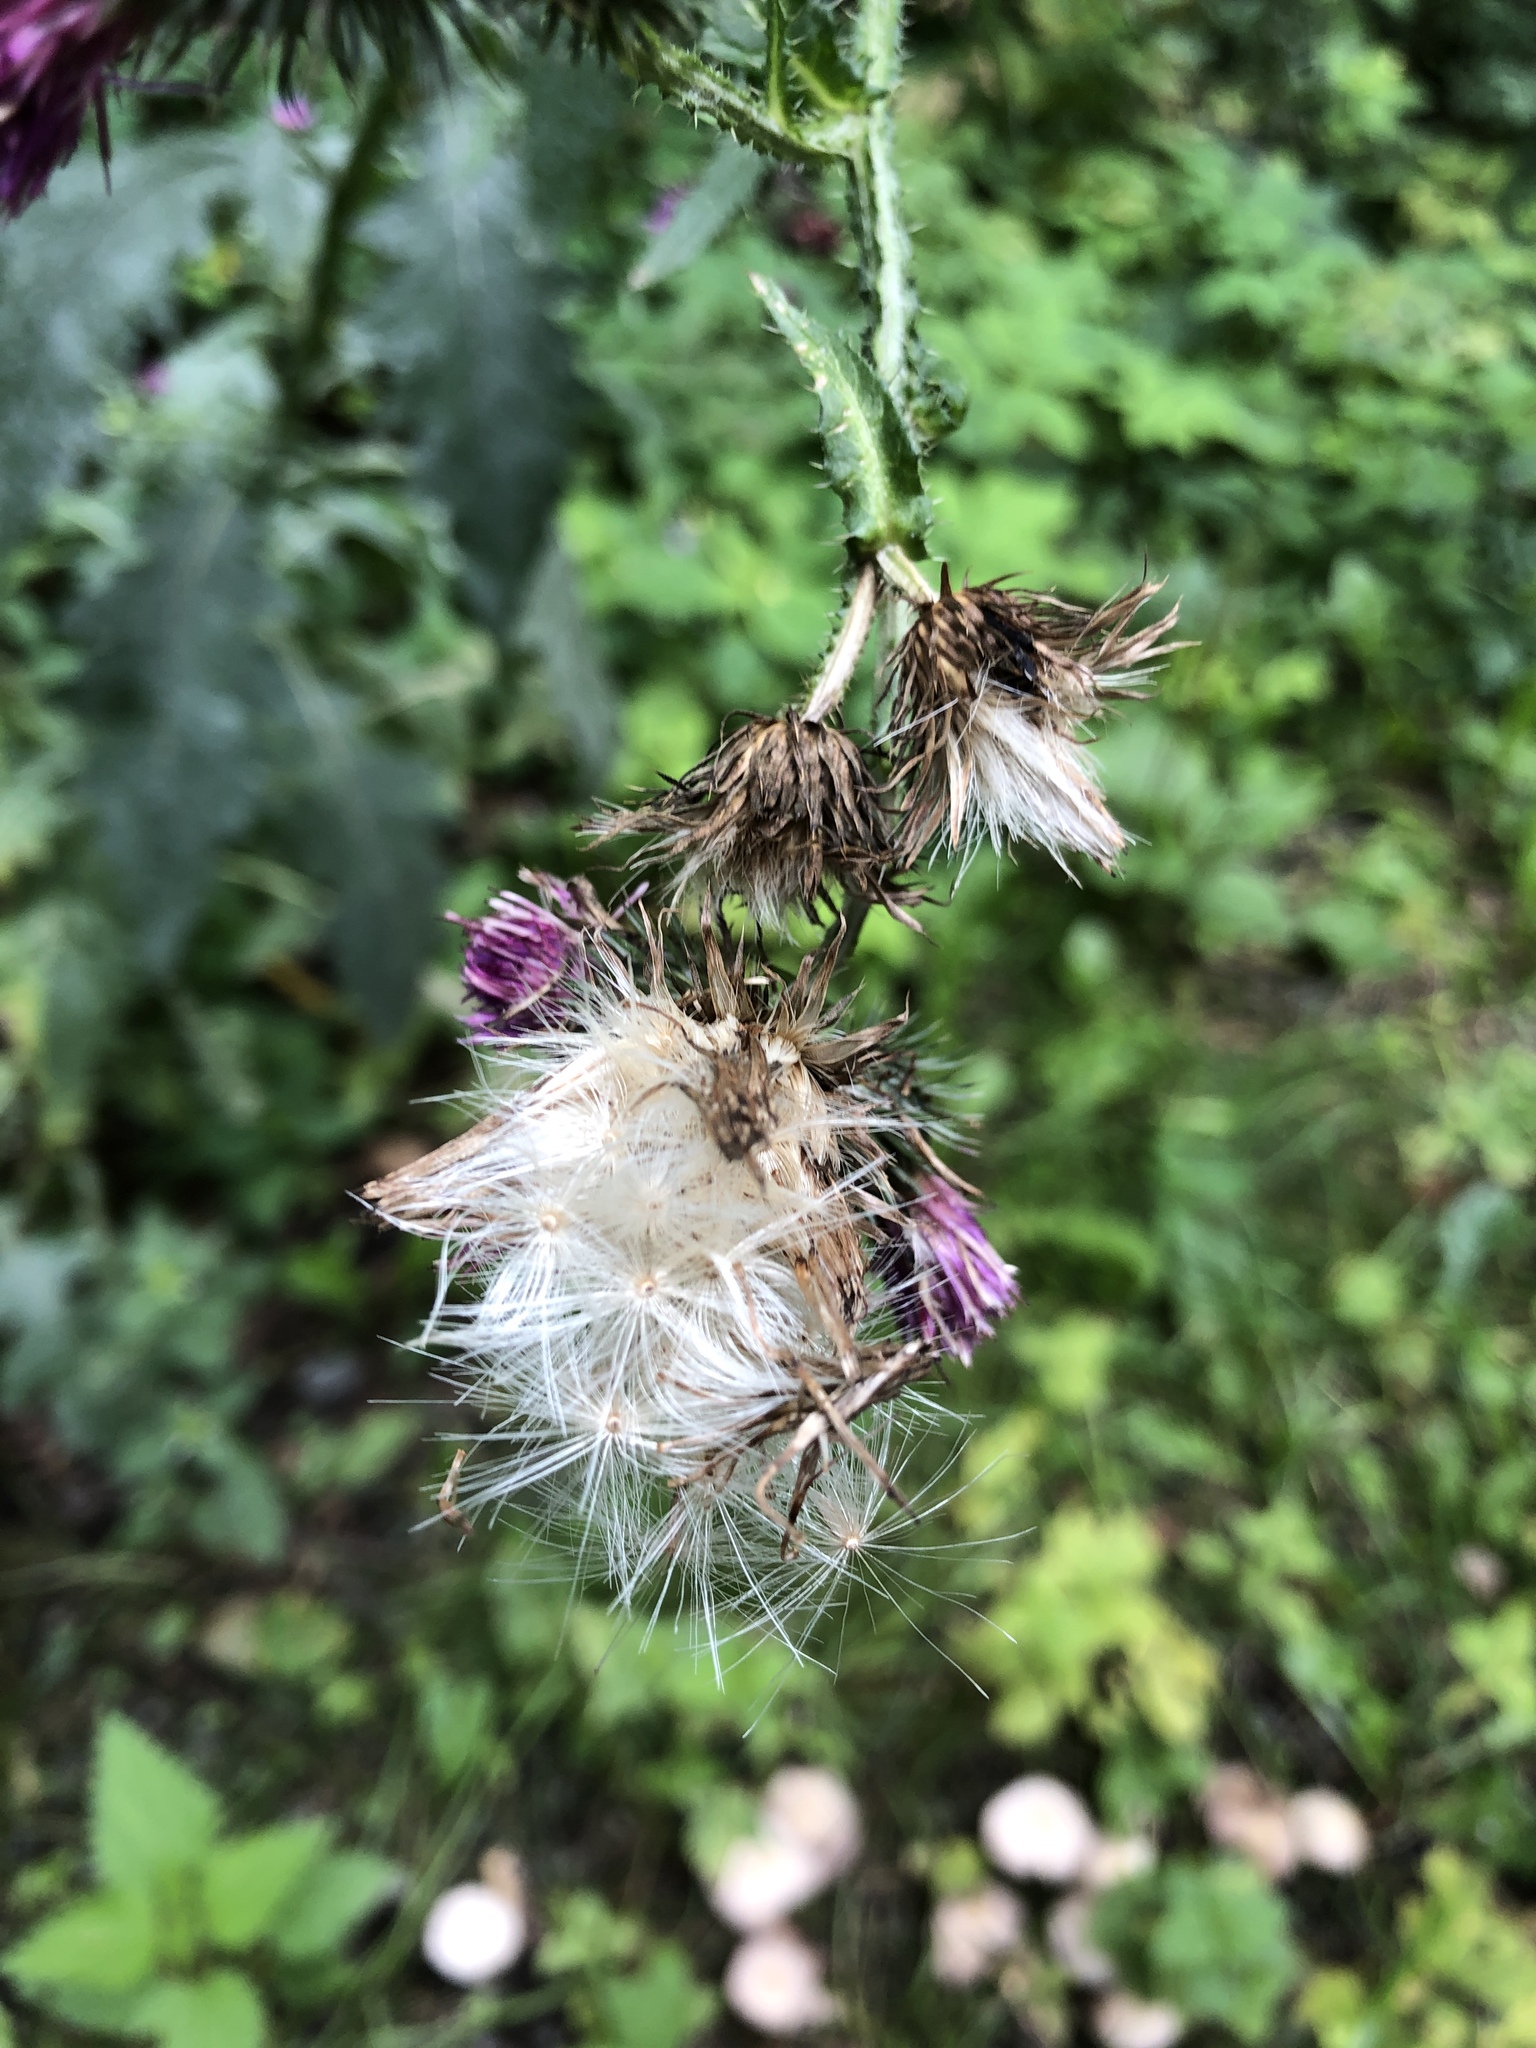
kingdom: Plantae
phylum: Tracheophyta
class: Magnoliopsida
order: Asterales
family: Asteraceae
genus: Carduus
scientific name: Carduus crispus
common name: Welted thistle
